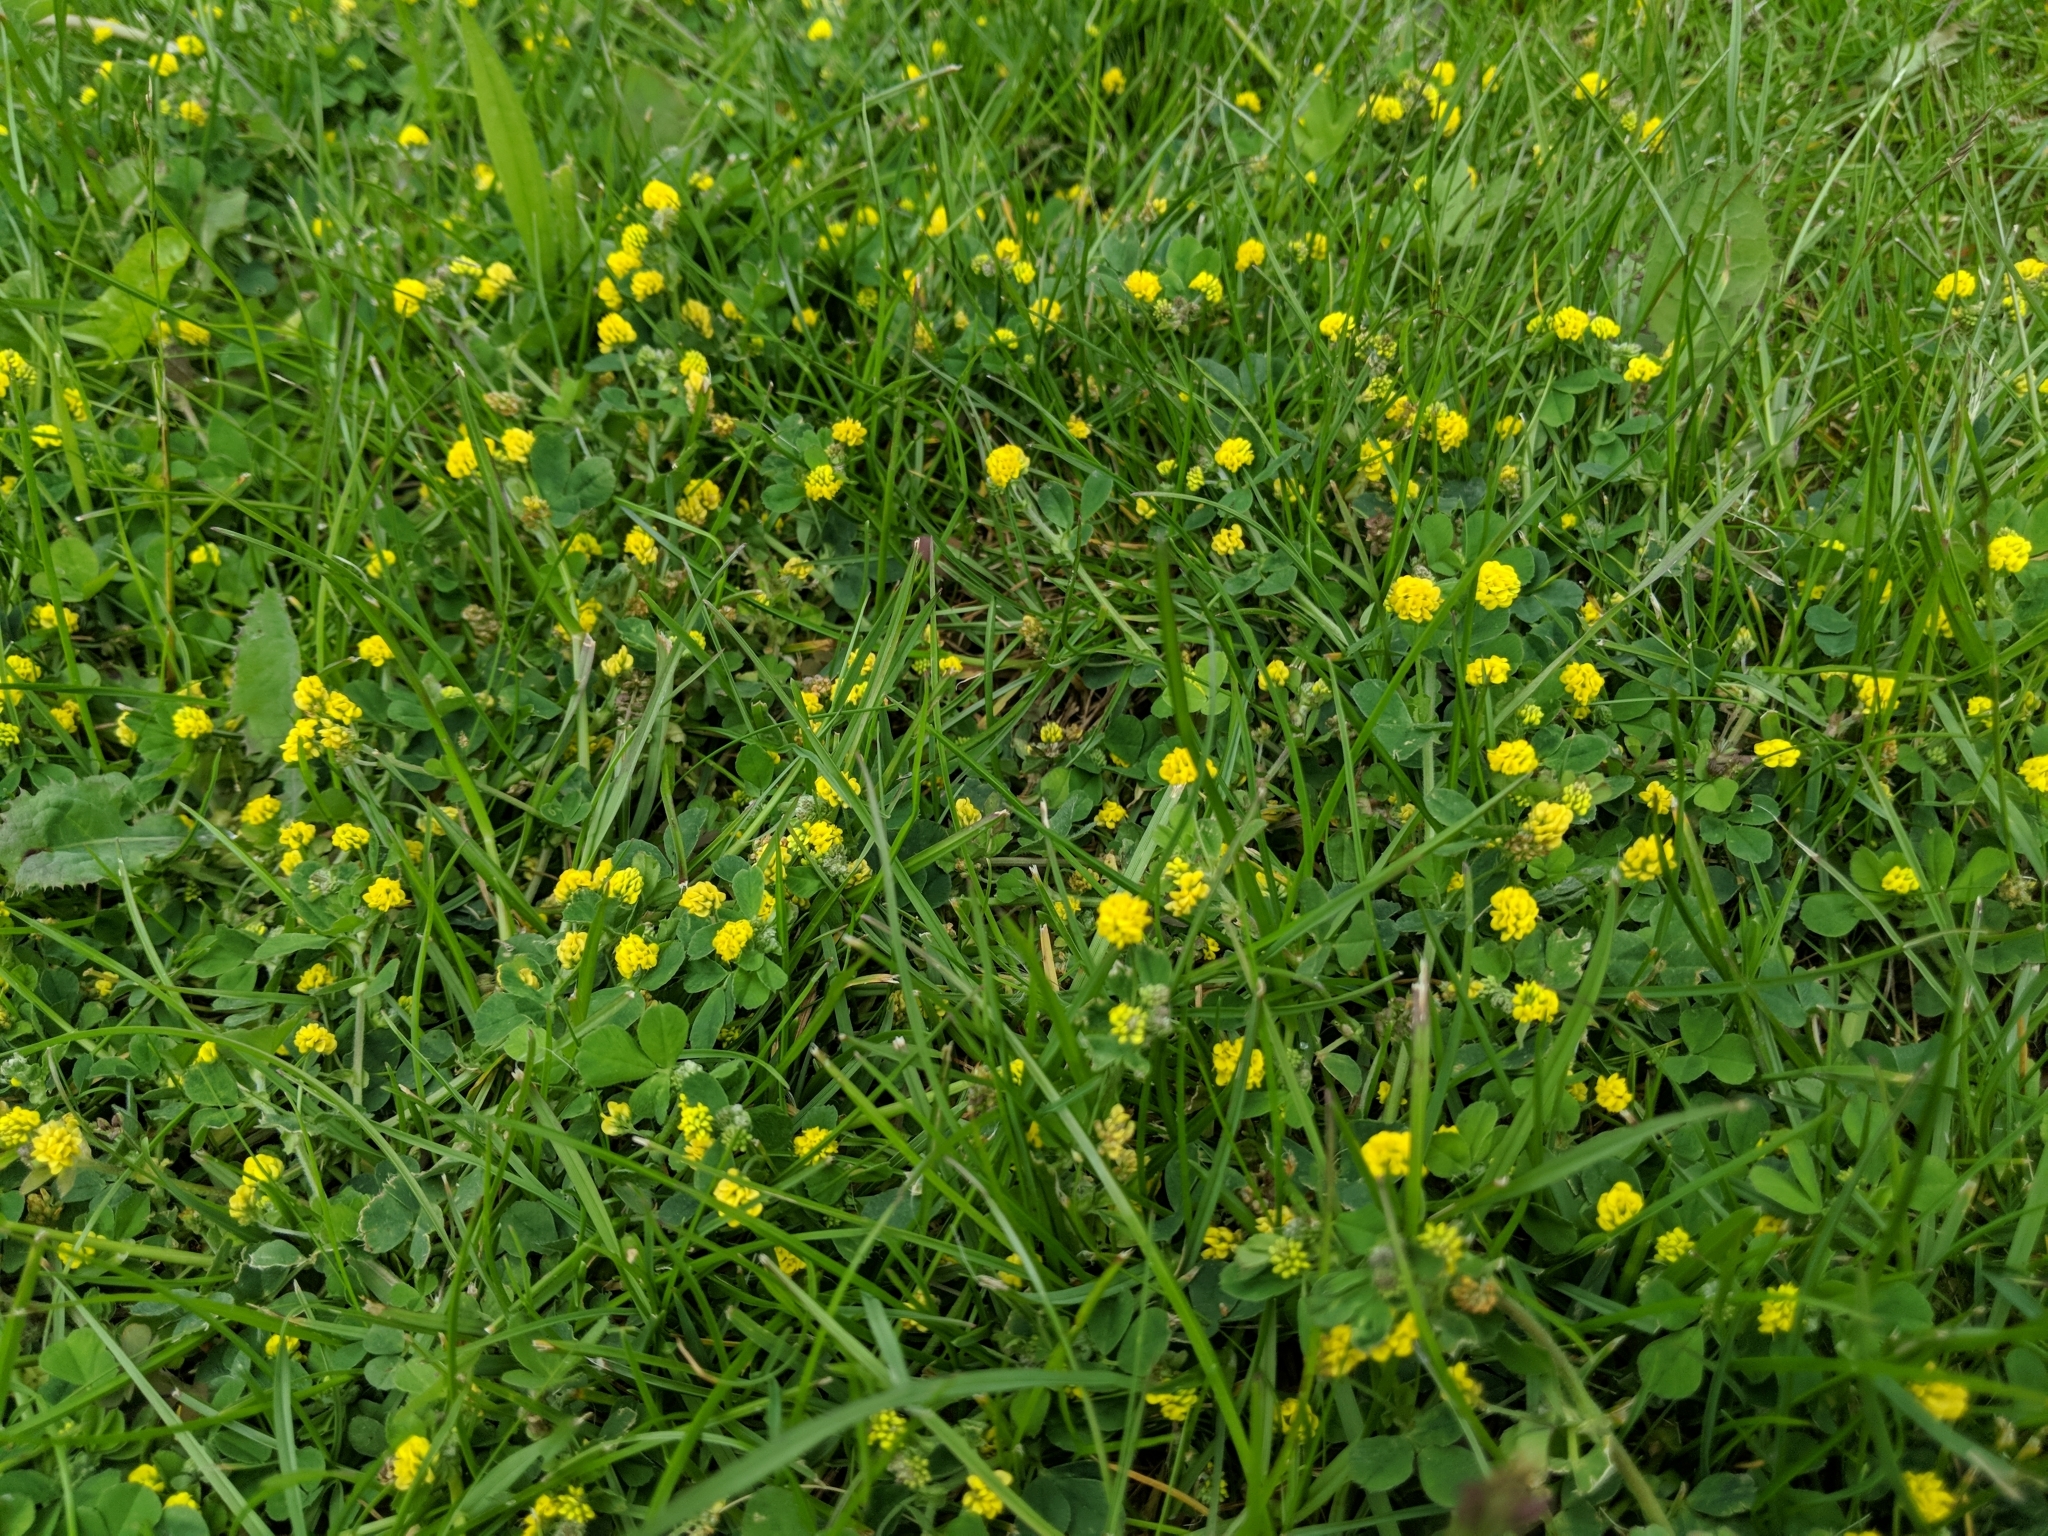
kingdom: Plantae
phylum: Tracheophyta
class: Magnoliopsida
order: Fabales
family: Fabaceae
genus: Medicago
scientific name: Medicago lupulina
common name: Black medick
